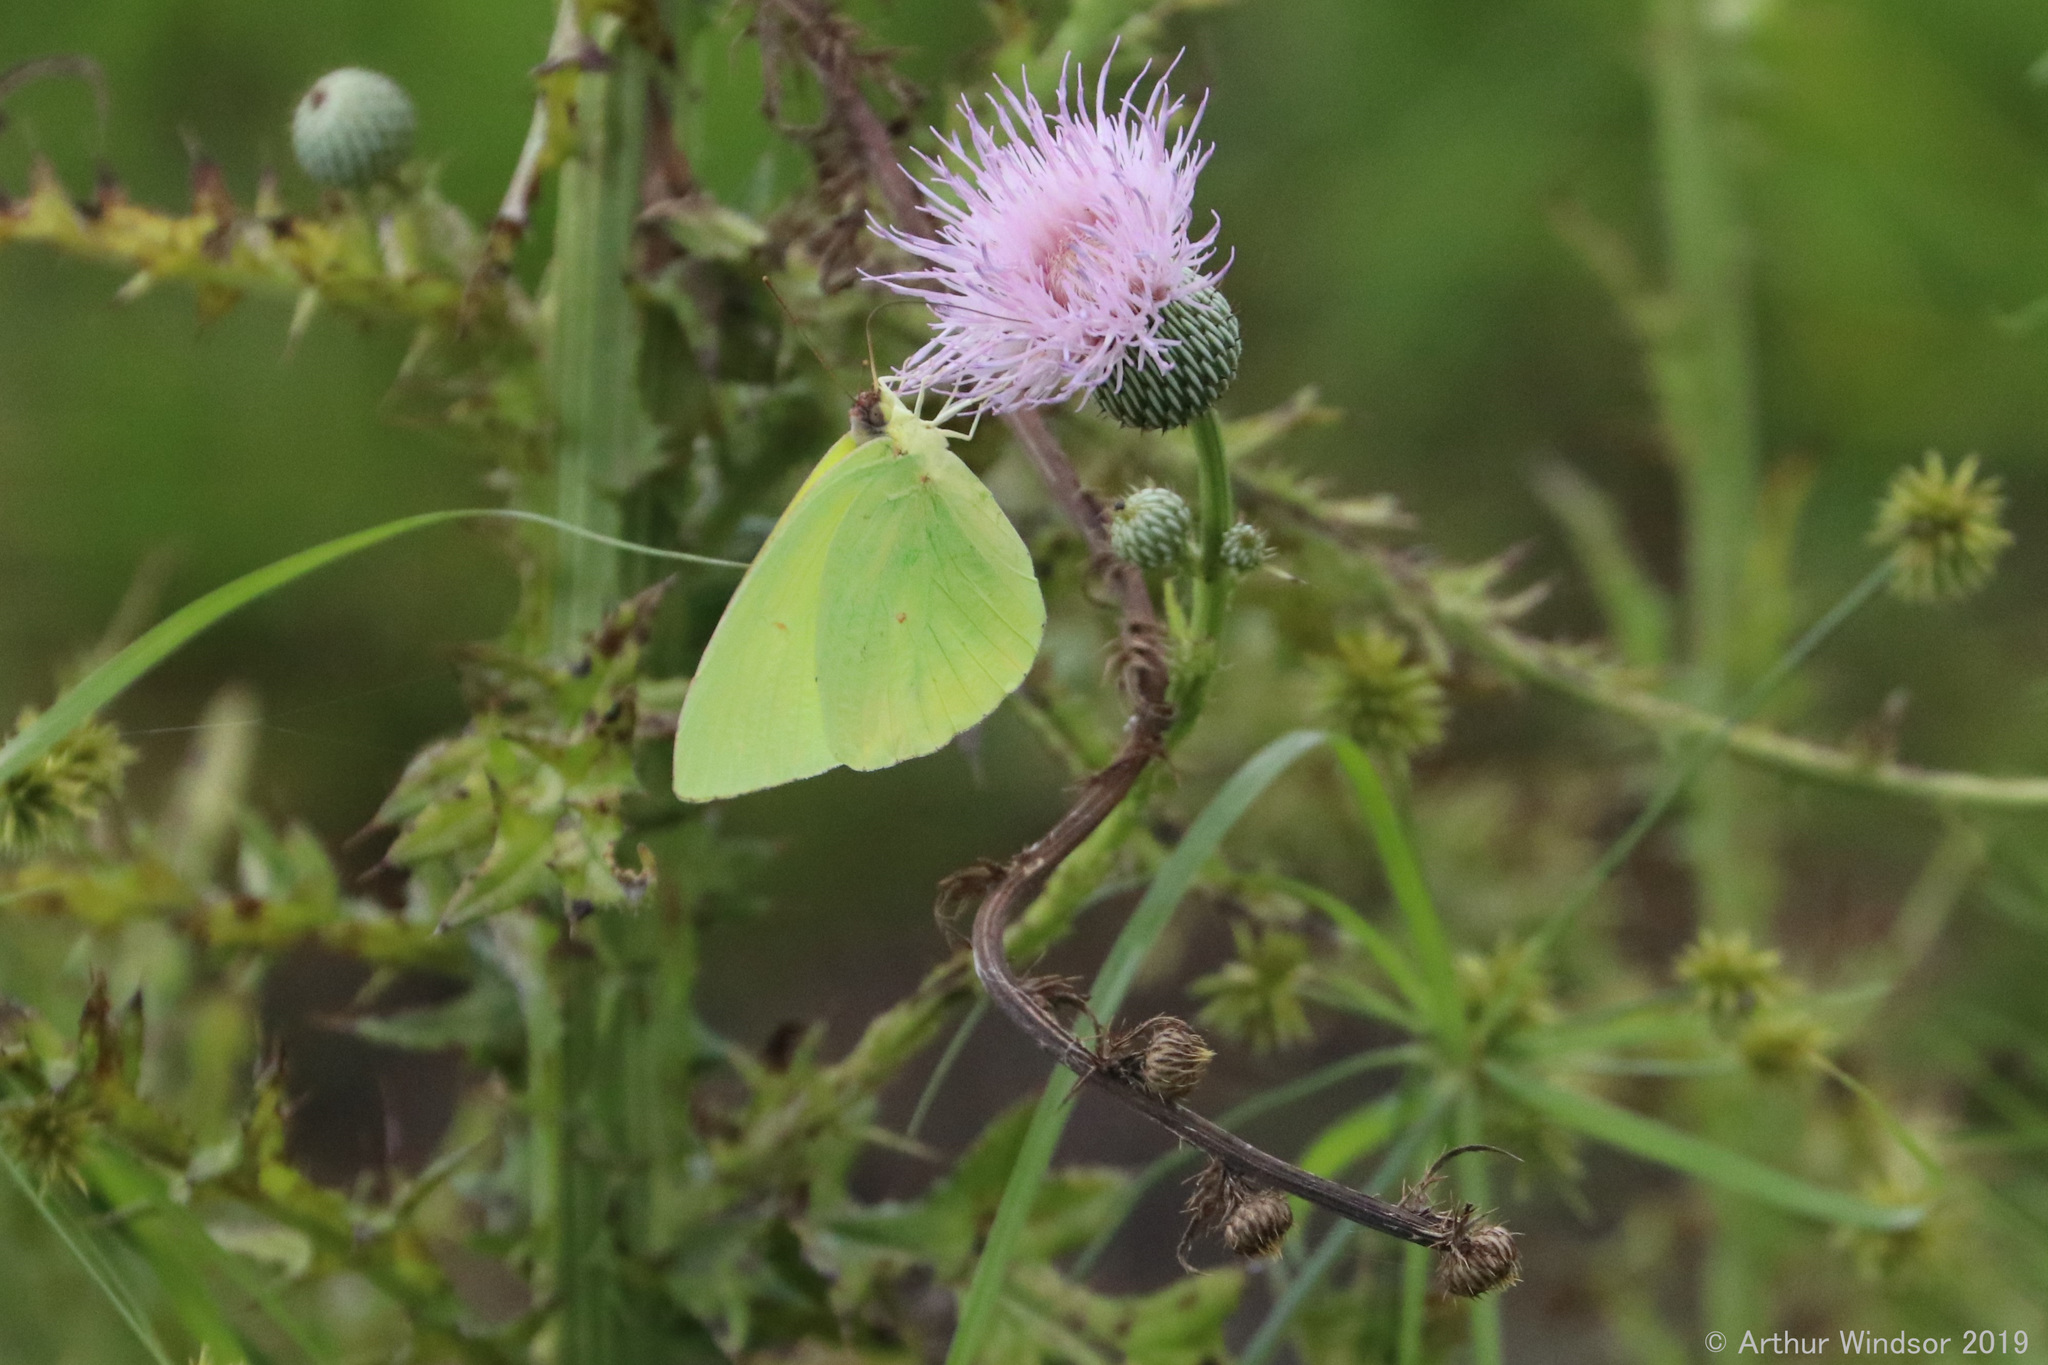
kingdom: Animalia
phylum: Arthropoda
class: Insecta
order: Lepidoptera
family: Pieridae
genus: Phoebis
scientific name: Phoebis sennae
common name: Cloudless sulphur
